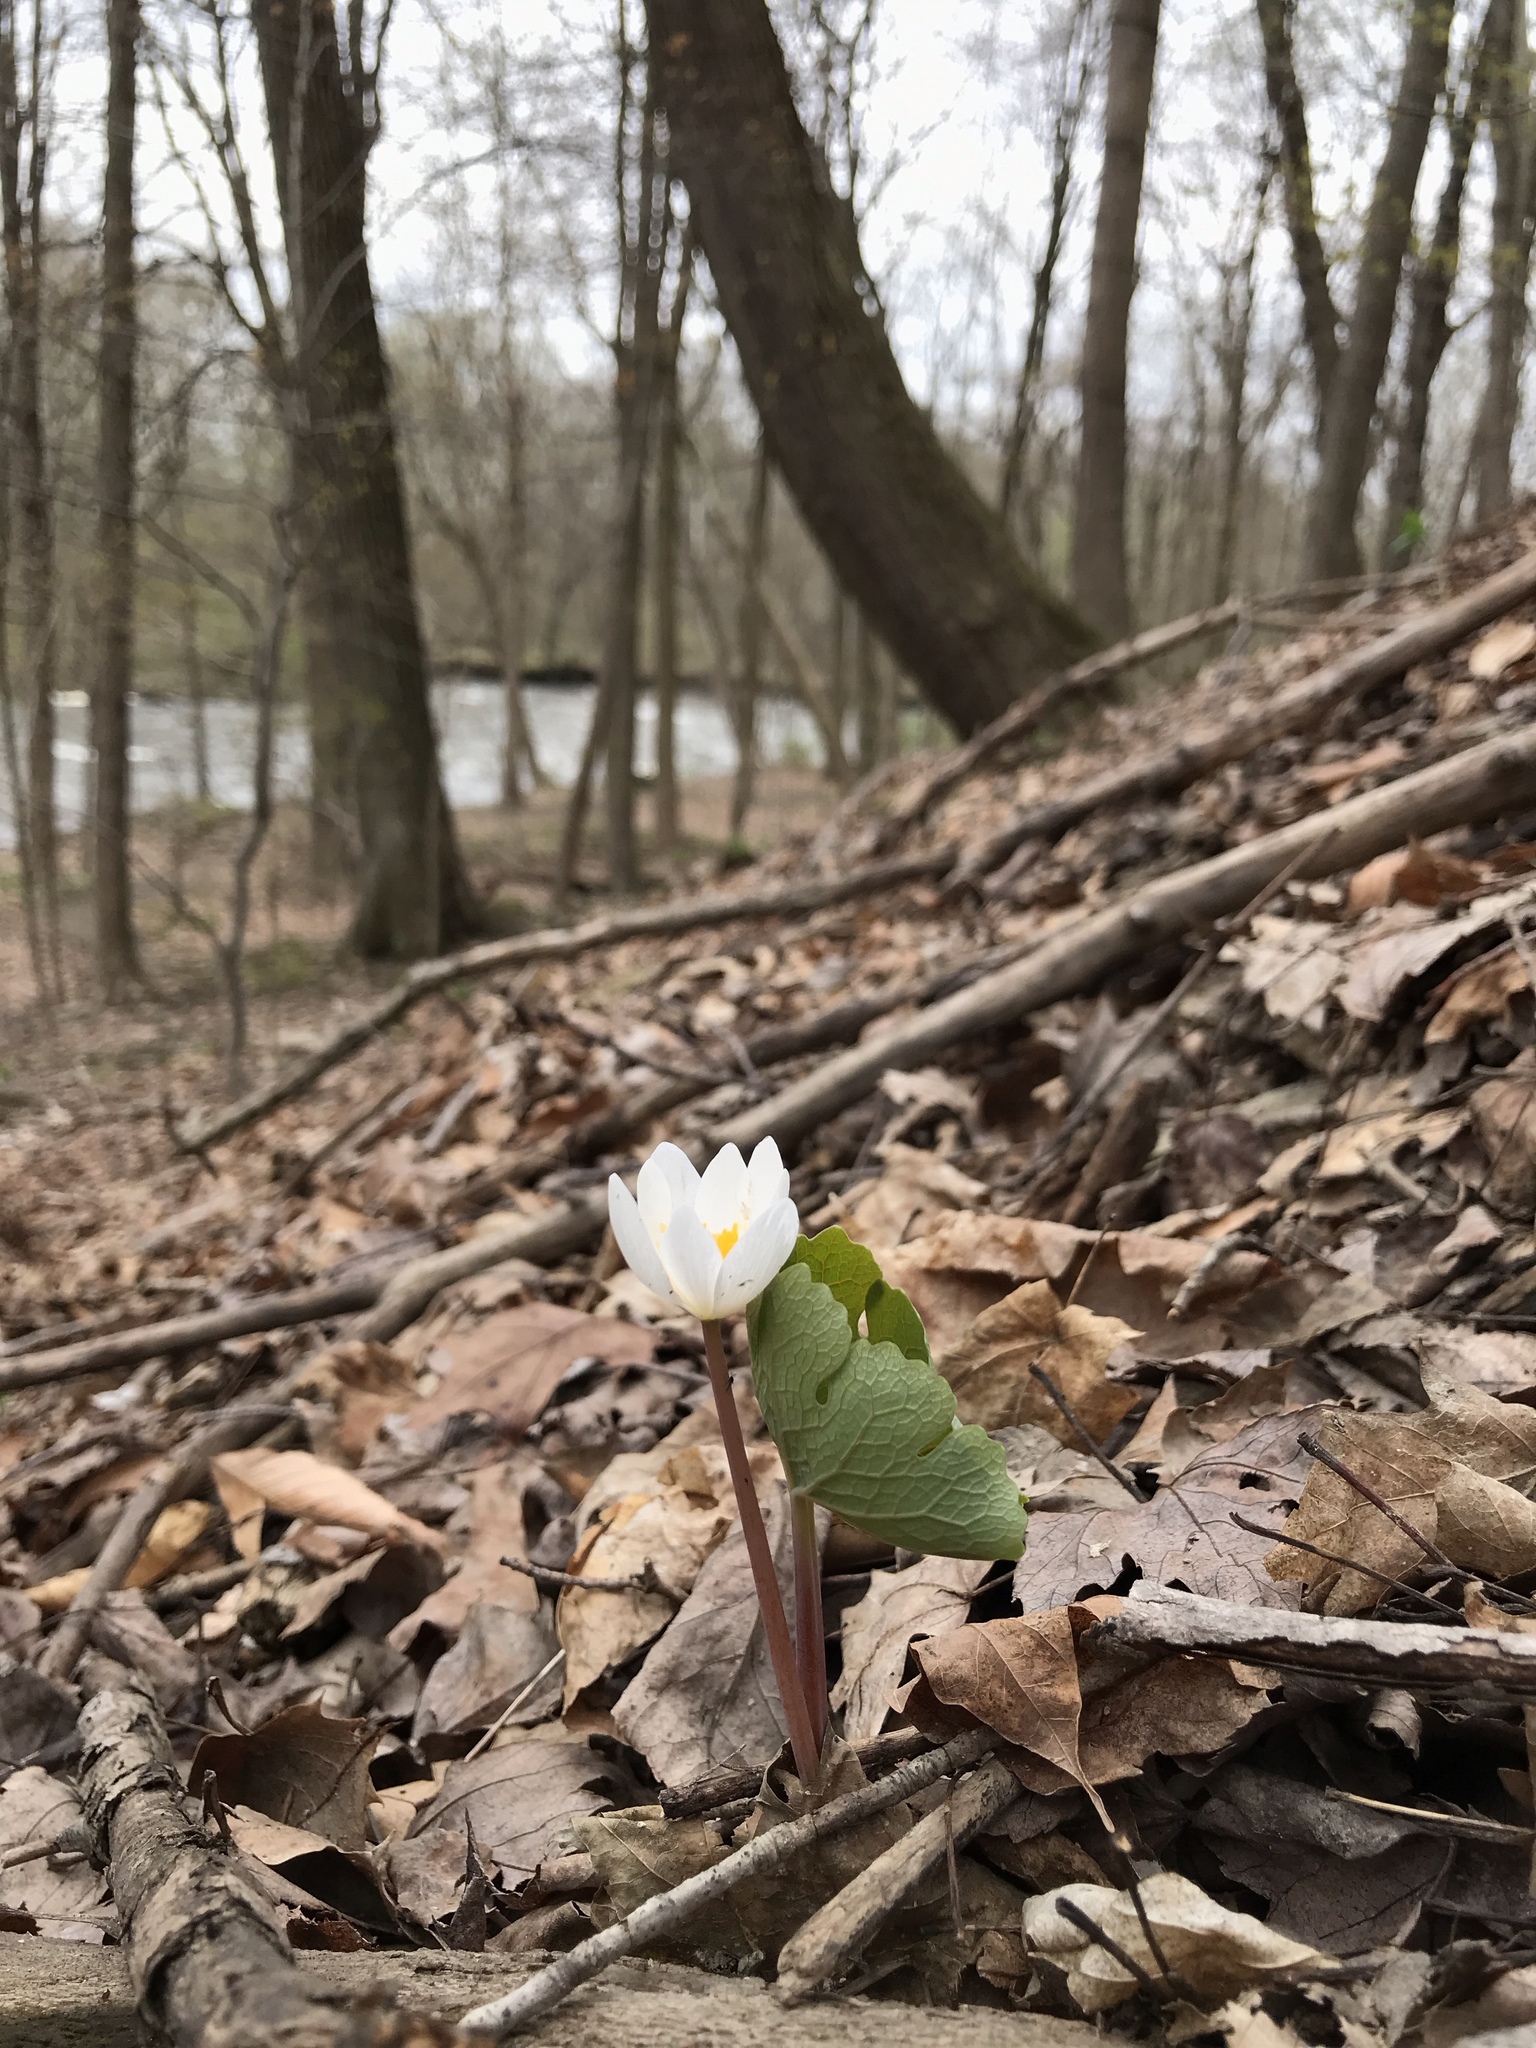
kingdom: Plantae
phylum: Tracheophyta
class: Magnoliopsida
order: Ranunculales
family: Papaveraceae
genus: Sanguinaria
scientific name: Sanguinaria canadensis
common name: Bloodroot
